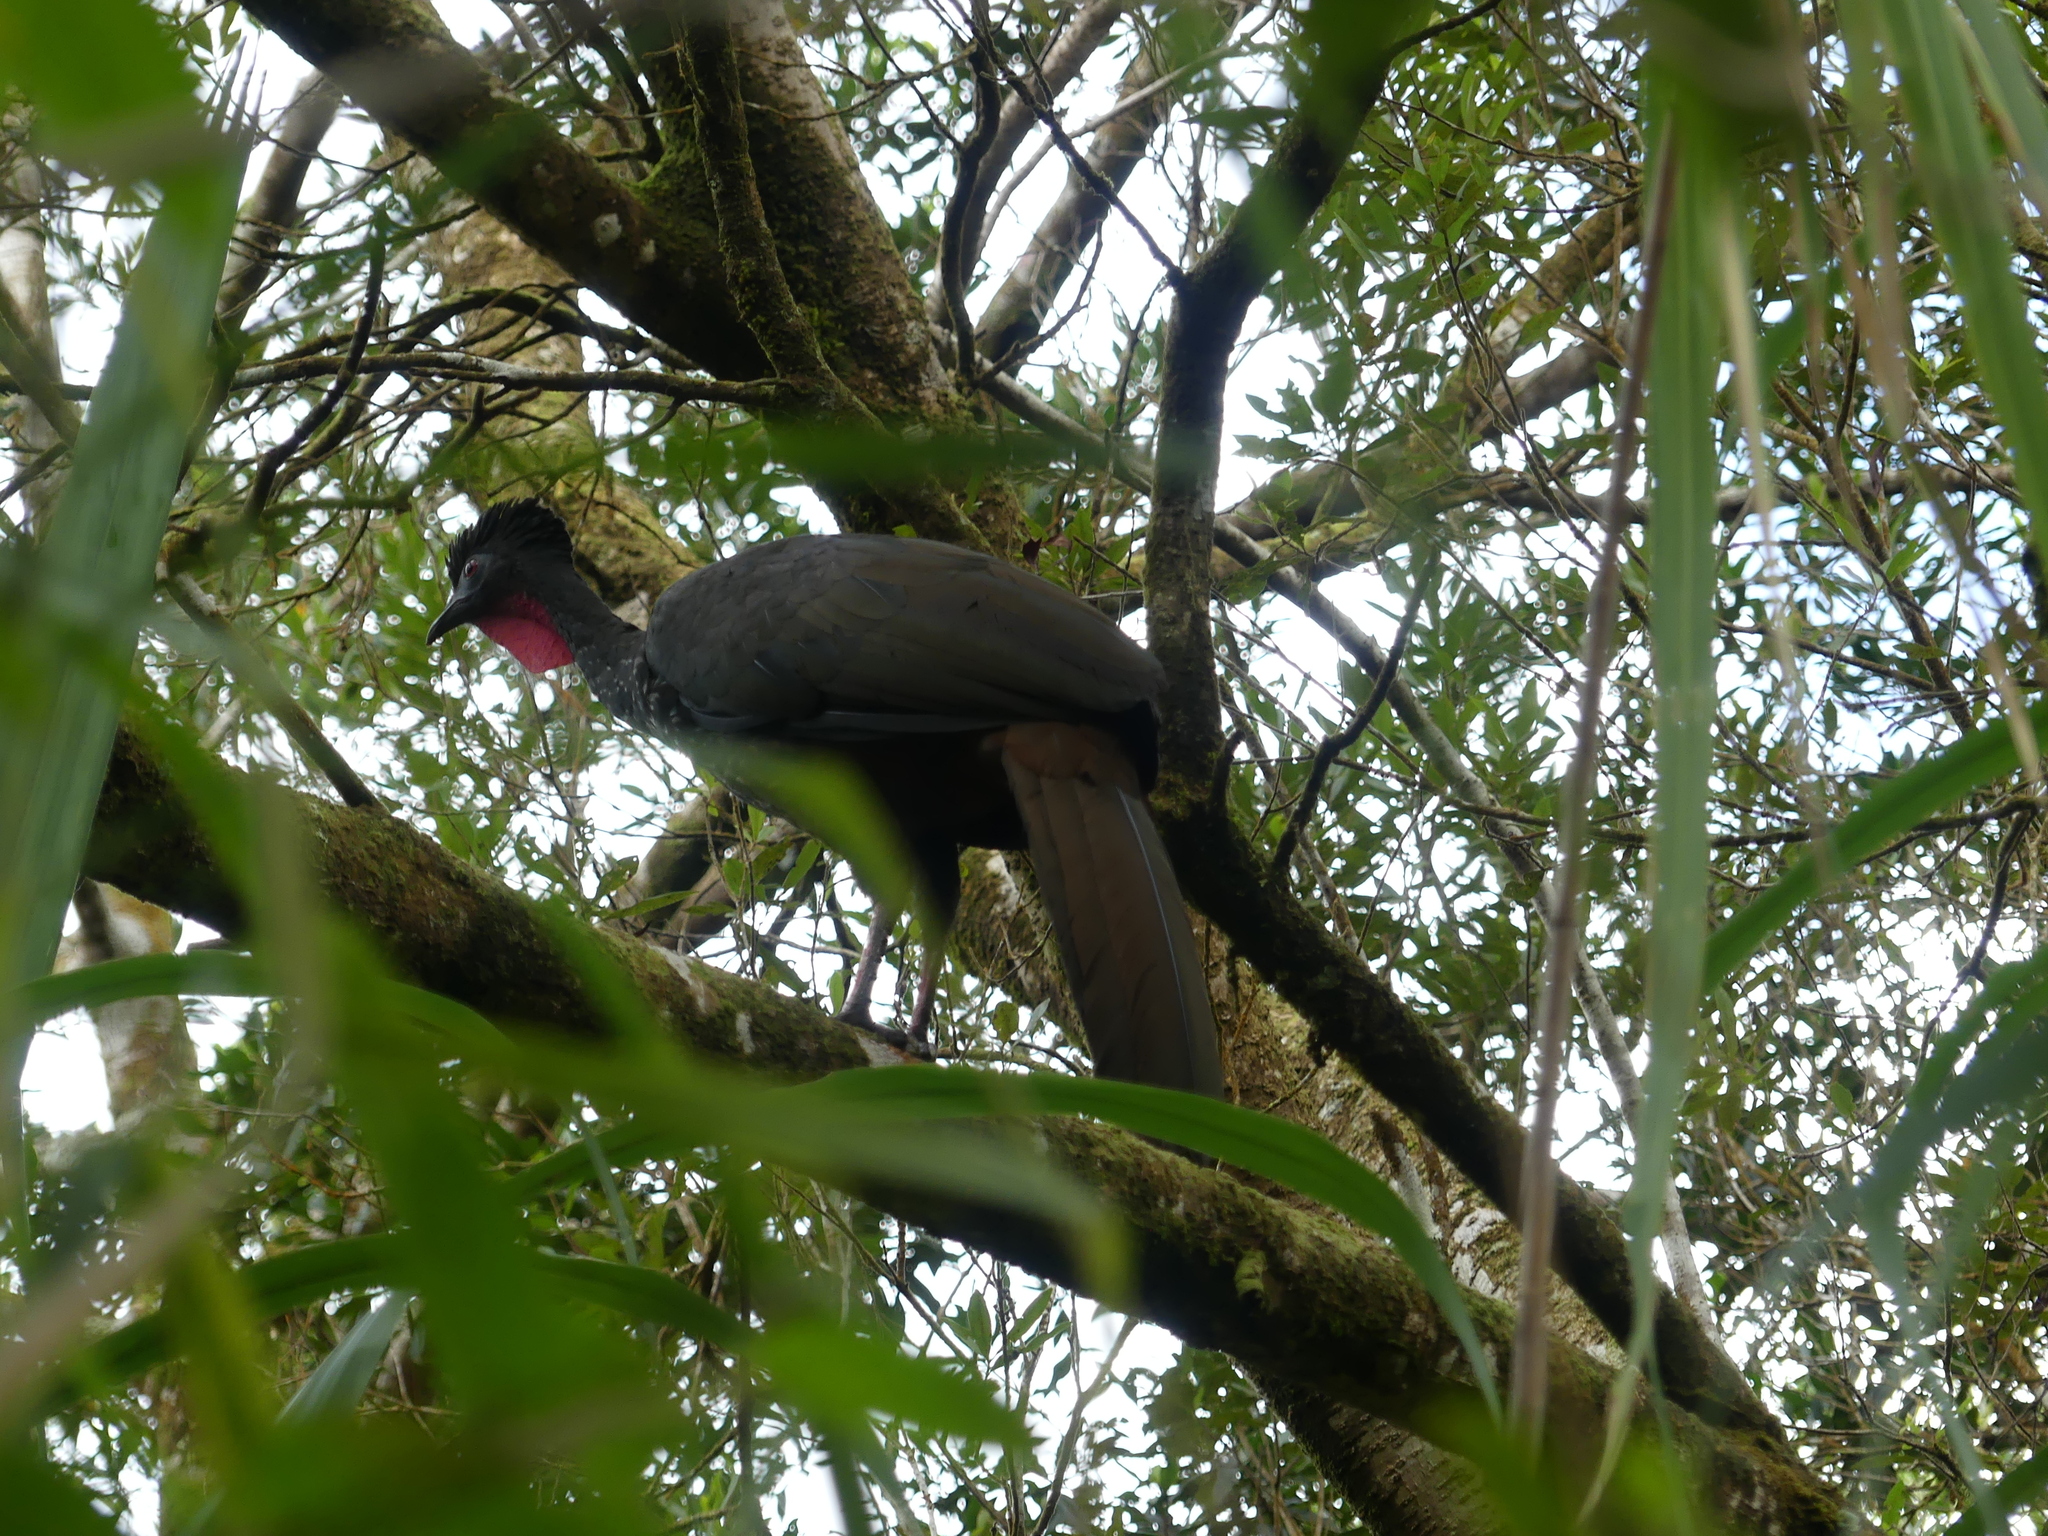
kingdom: Animalia
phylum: Chordata
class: Aves
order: Galliformes
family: Cracidae
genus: Penelope
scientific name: Penelope purpurascens
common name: Crested guan
